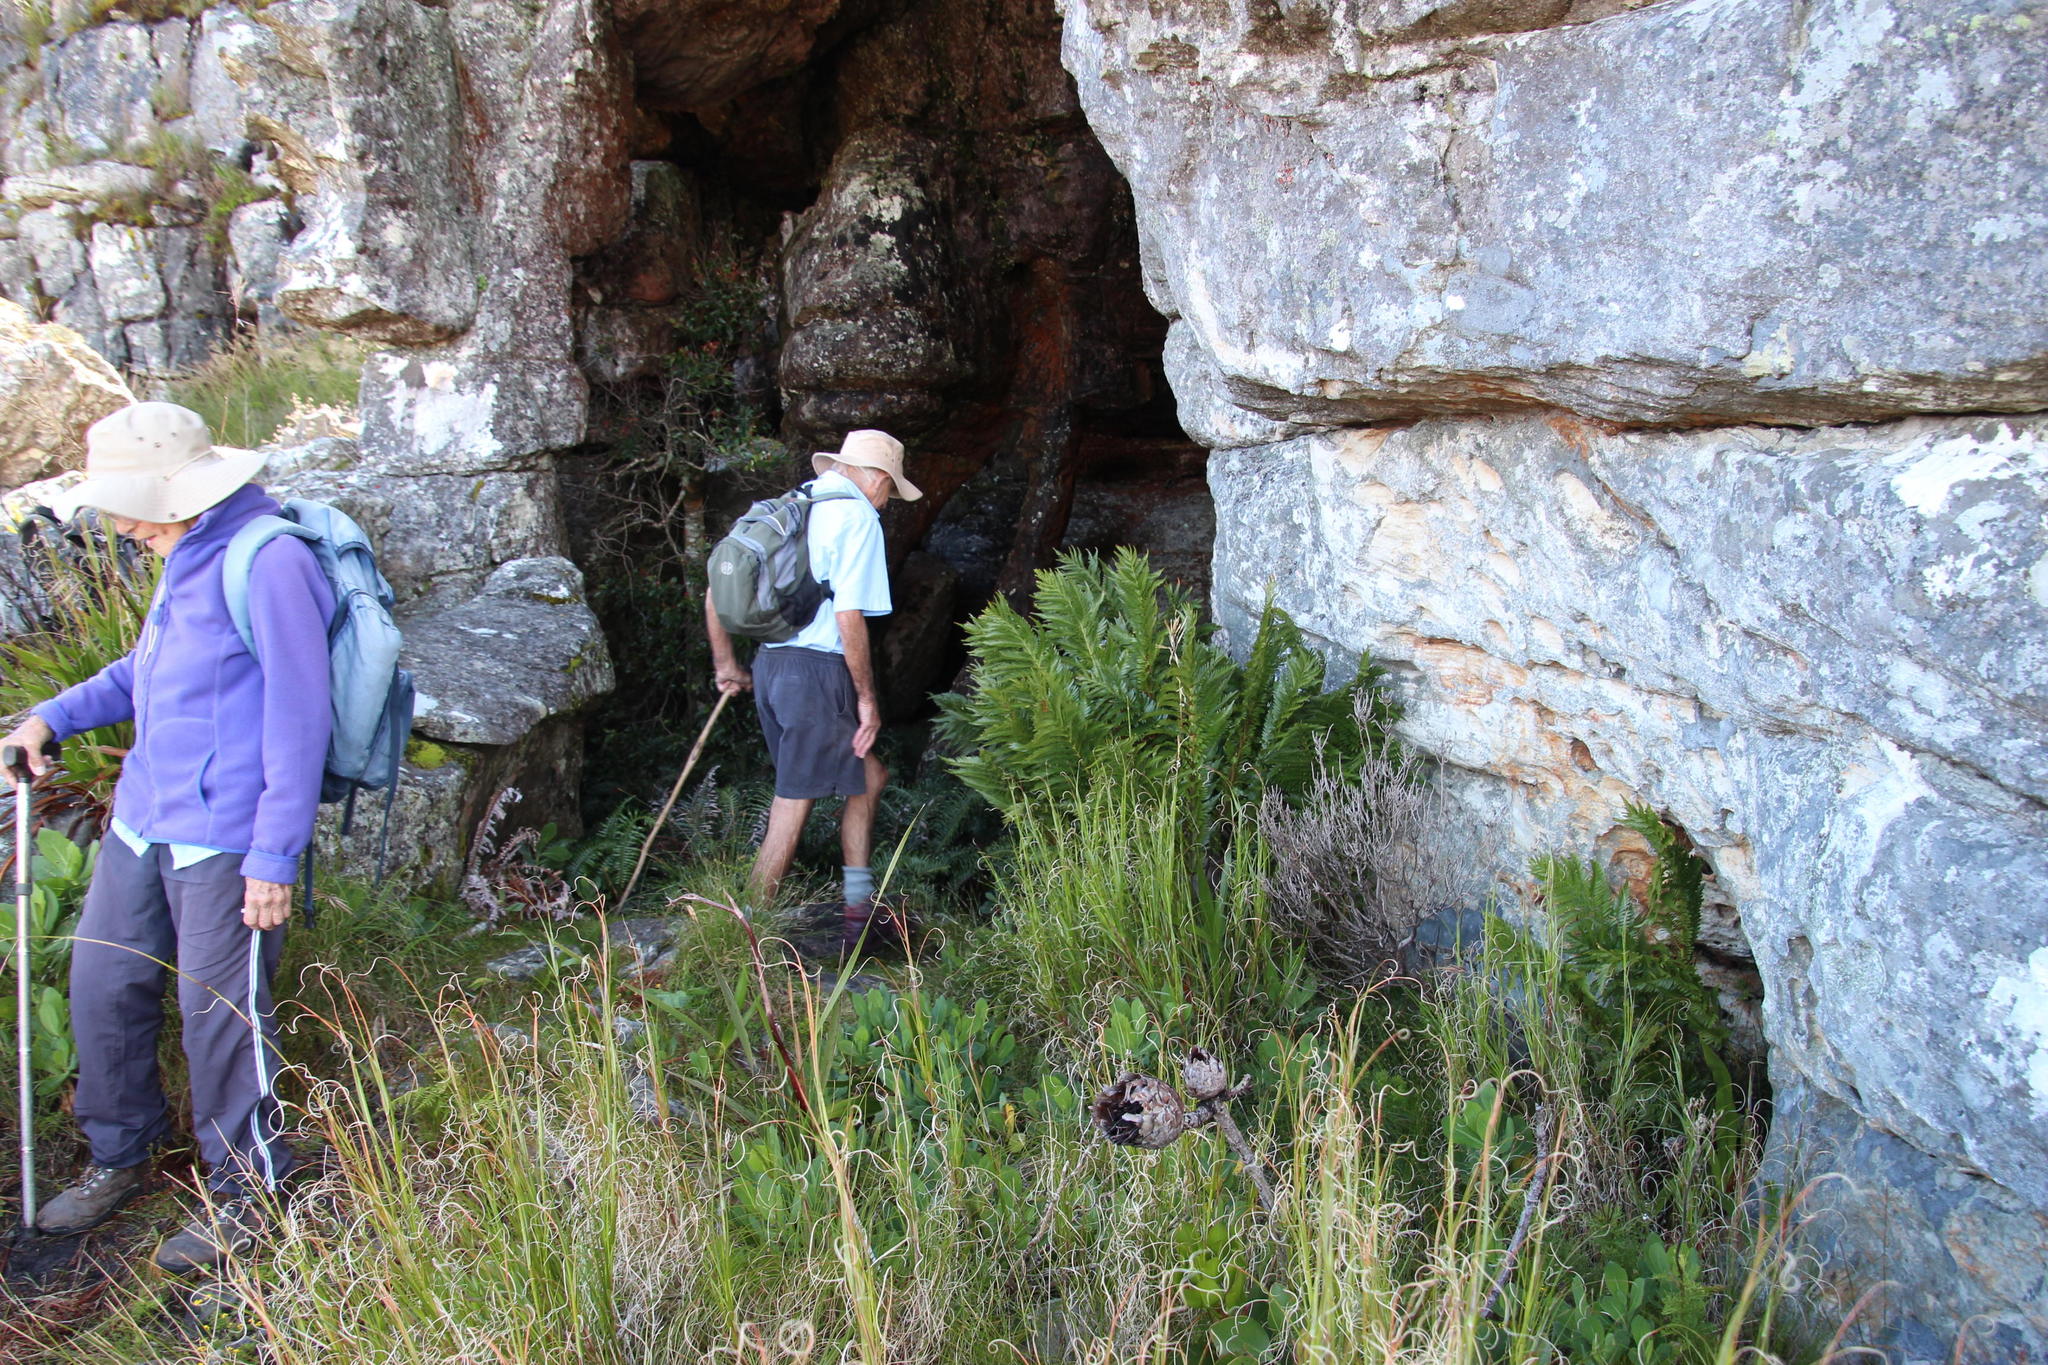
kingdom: Plantae
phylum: Tracheophyta
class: Polypodiopsida
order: Osmundales
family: Osmundaceae
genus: Todea
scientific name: Todea barbara
